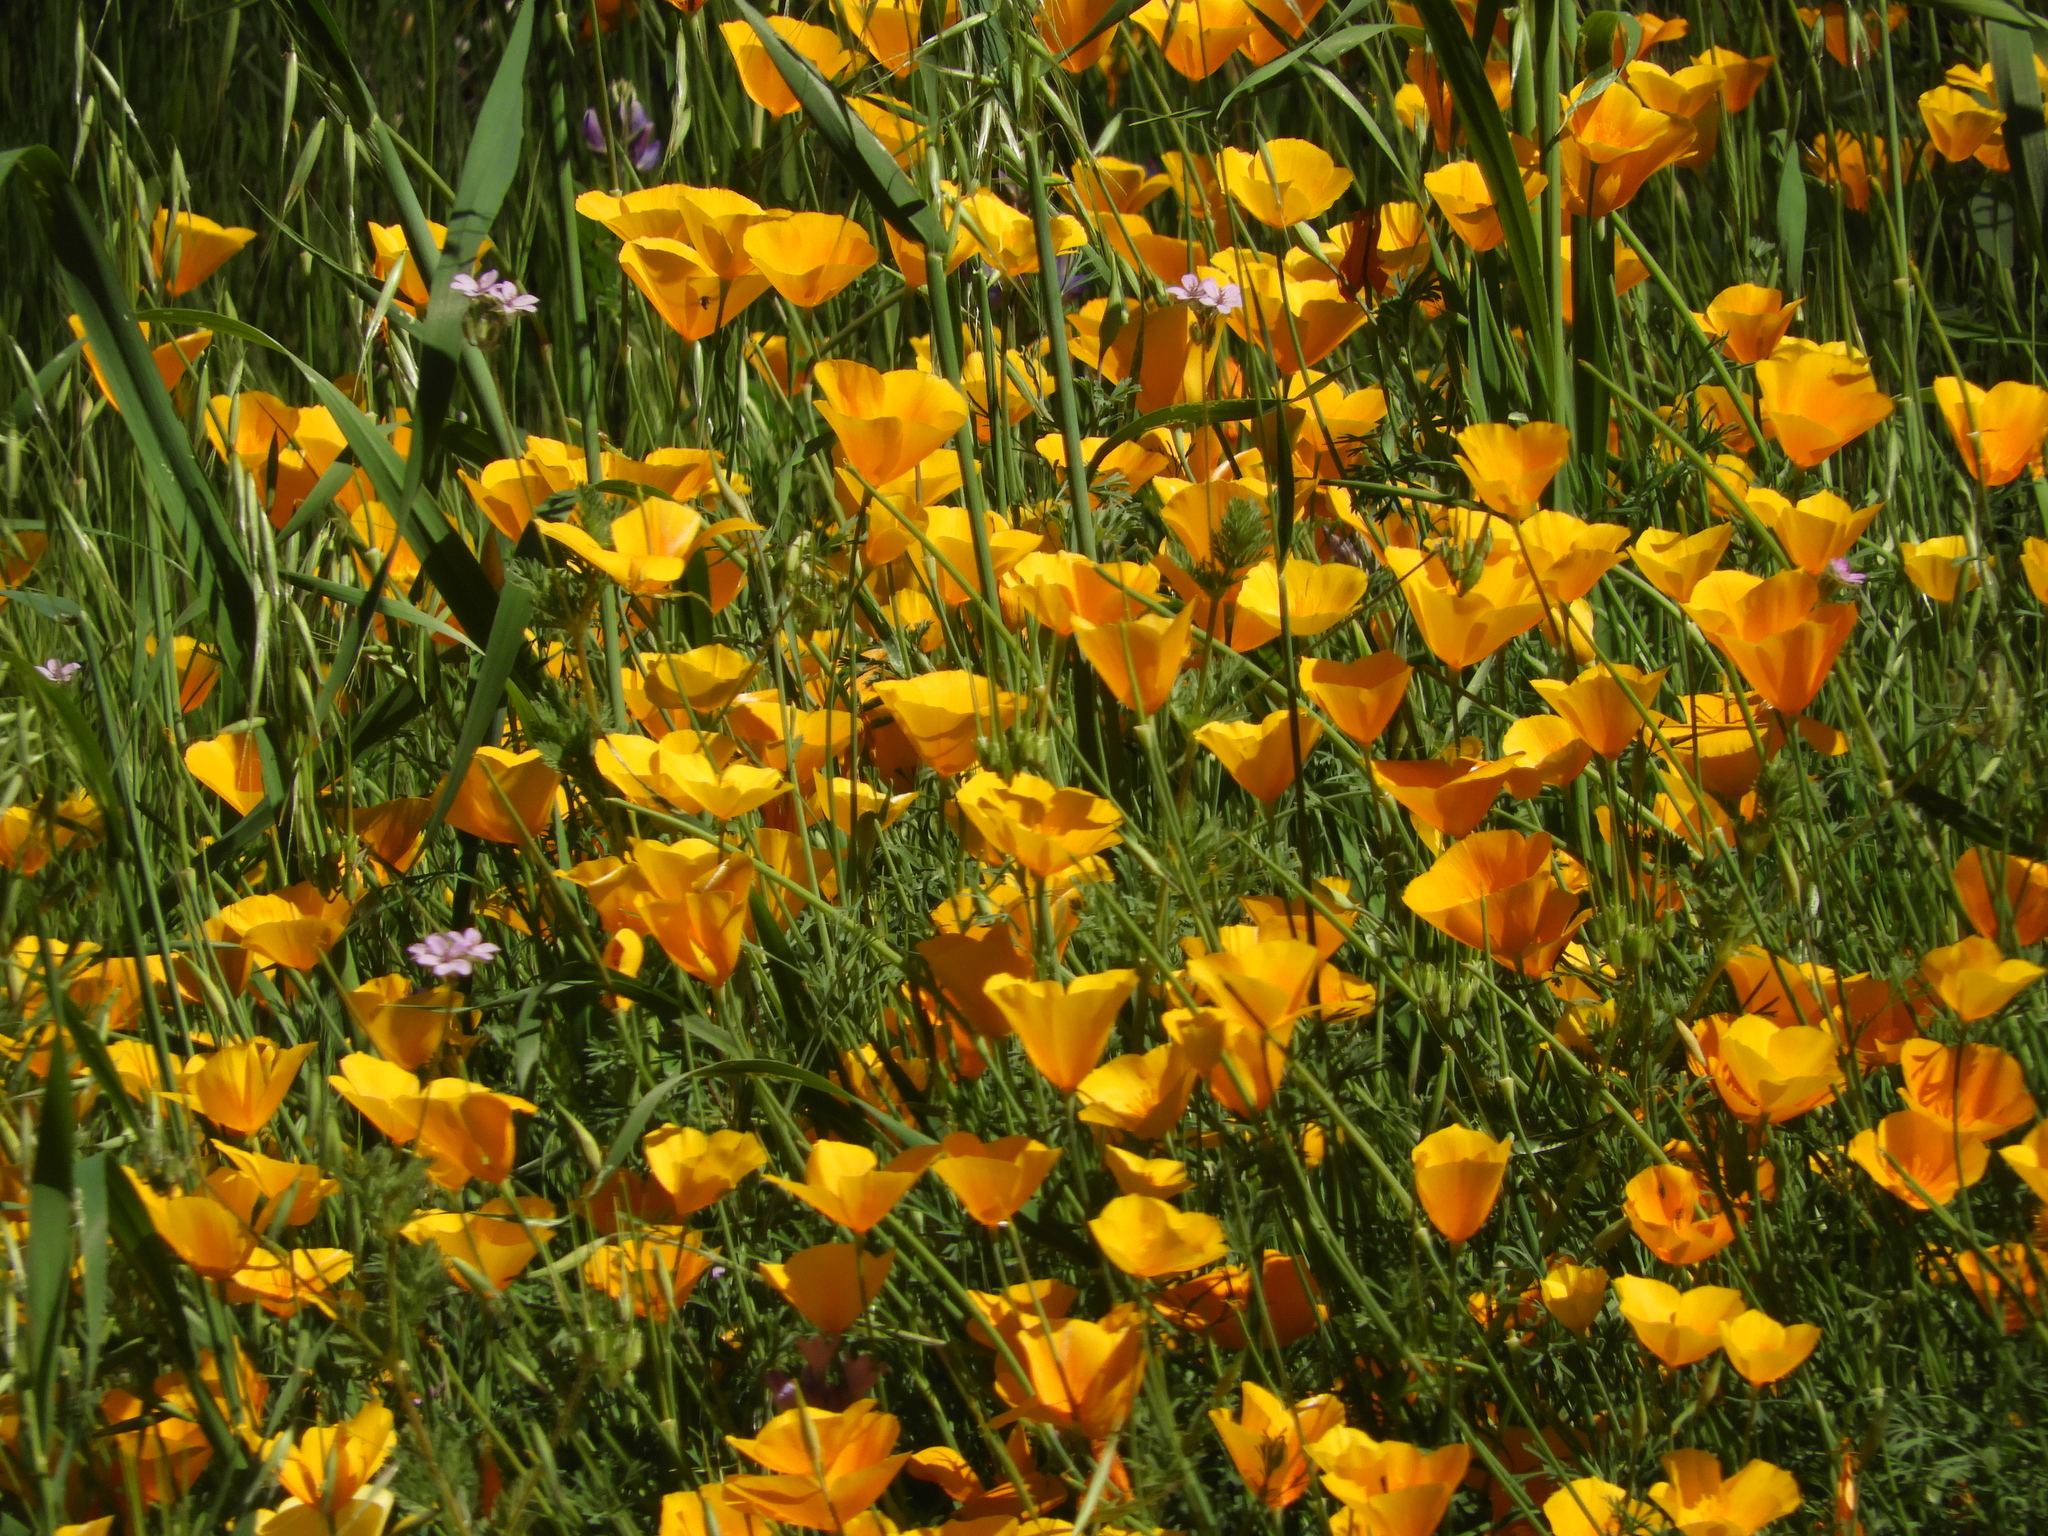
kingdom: Plantae
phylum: Tracheophyta
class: Magnoliopsida
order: Ranunculales
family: Papaveraceae
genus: Eschscholzia
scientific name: Eschscholzia caespitosa
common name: Tufted california-poppy
